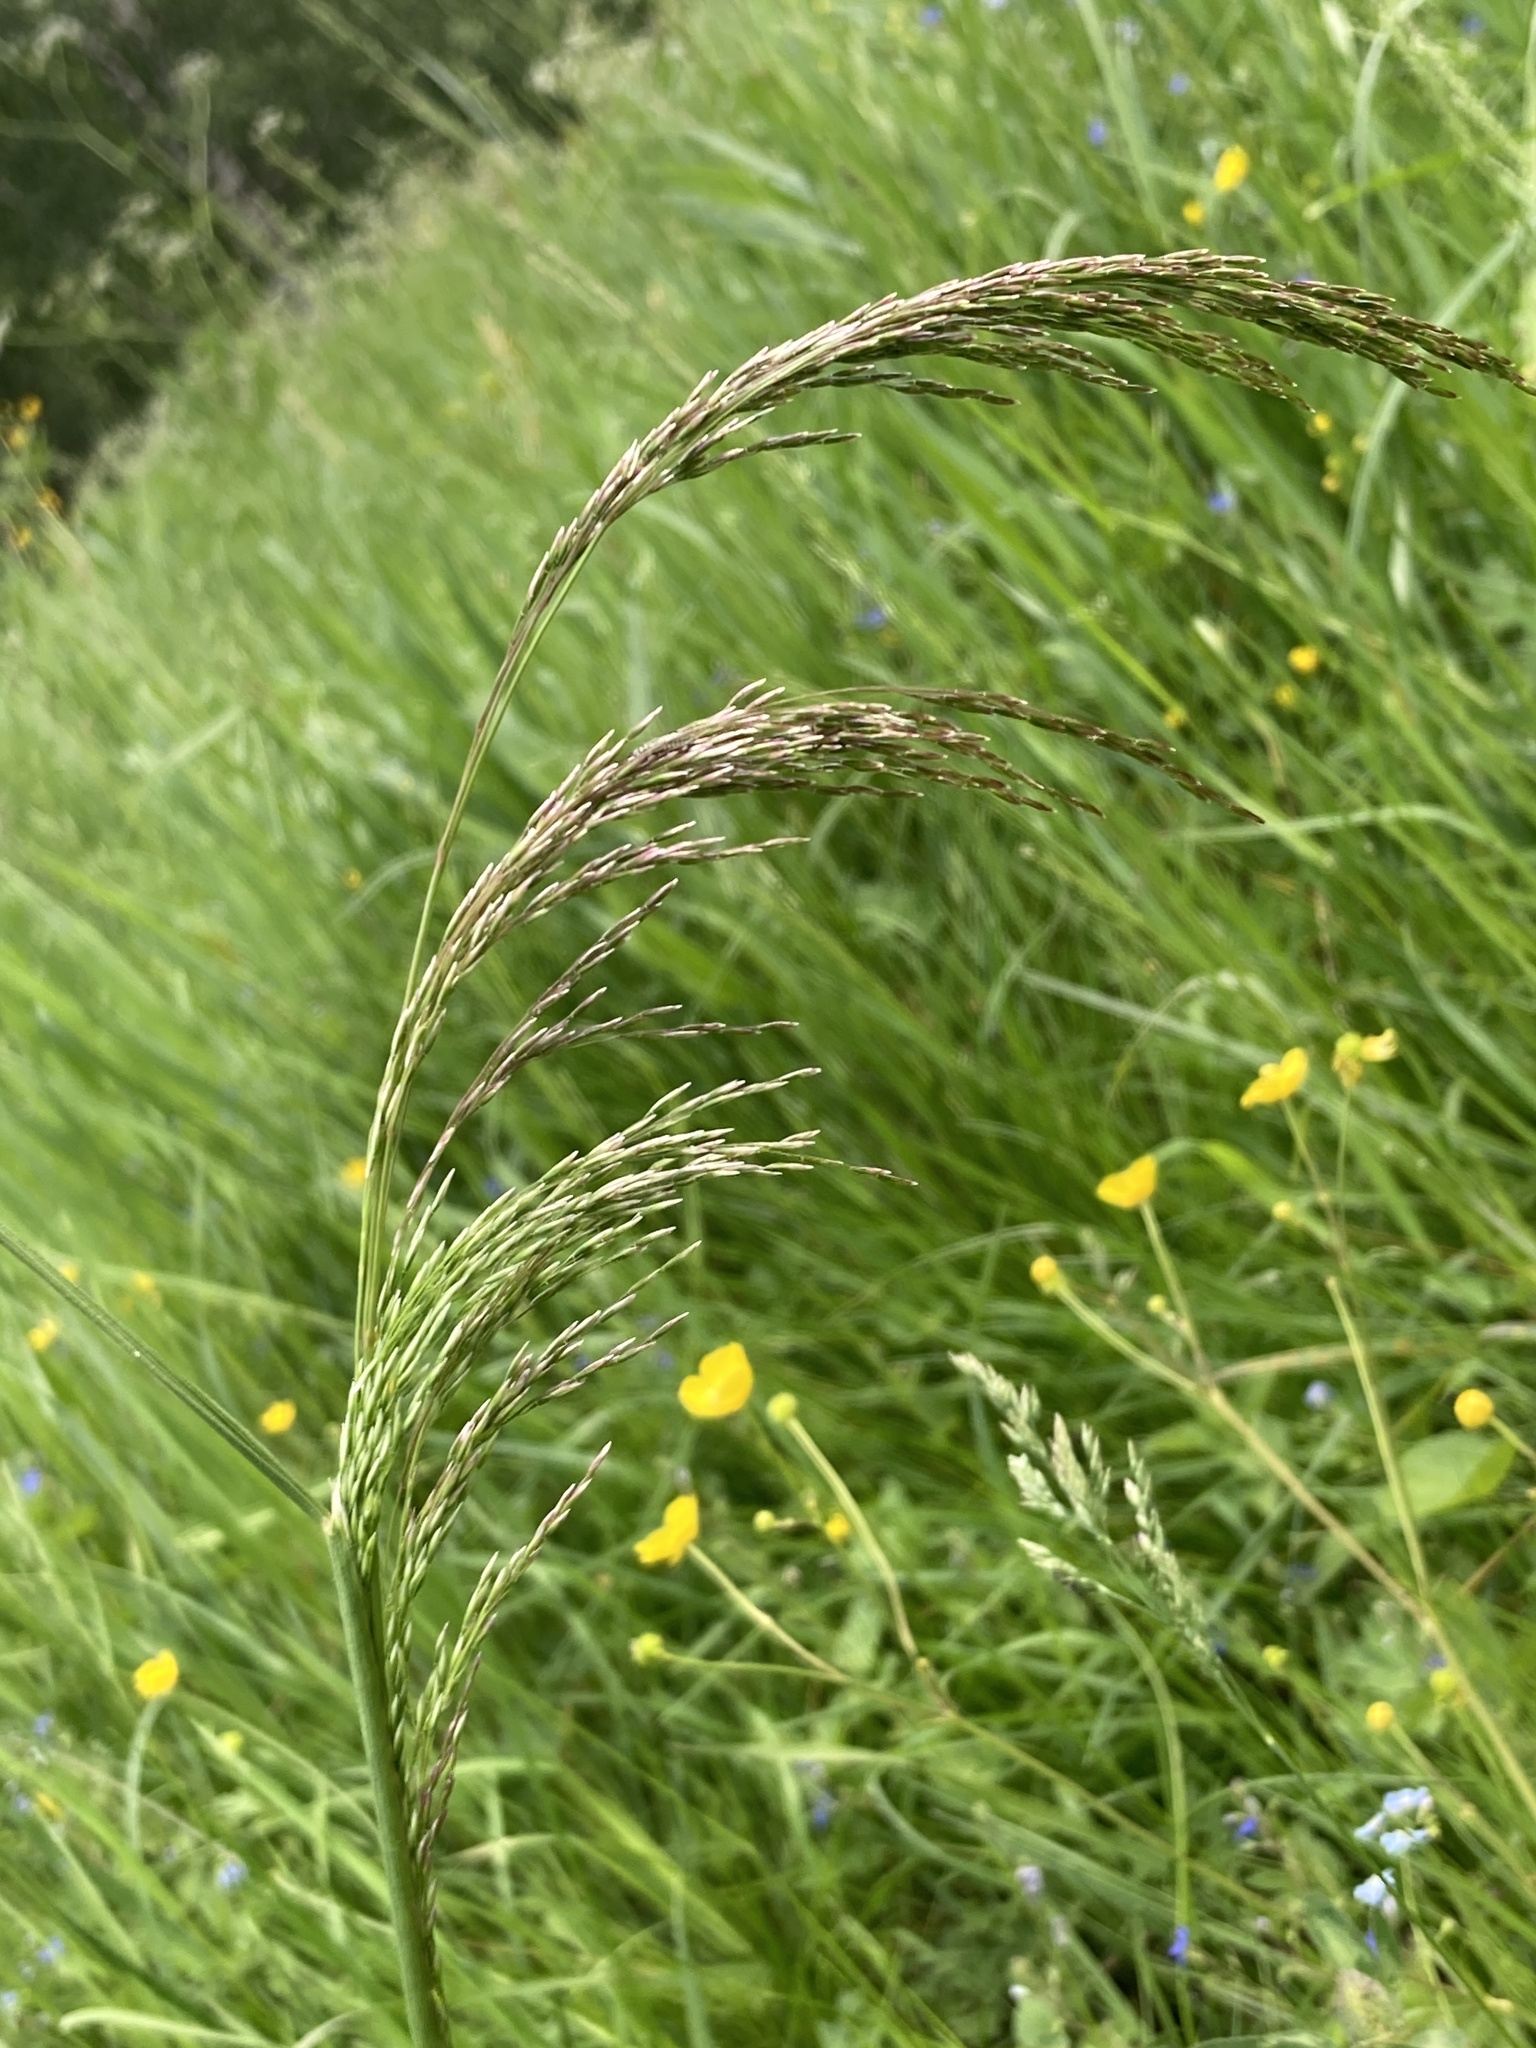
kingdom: Plantae
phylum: Tracheophyta
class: Liliopsida
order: Poales
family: Poaceae
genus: Deschampsia
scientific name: Deschampsia cespitosa
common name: Tufted hair-grass
